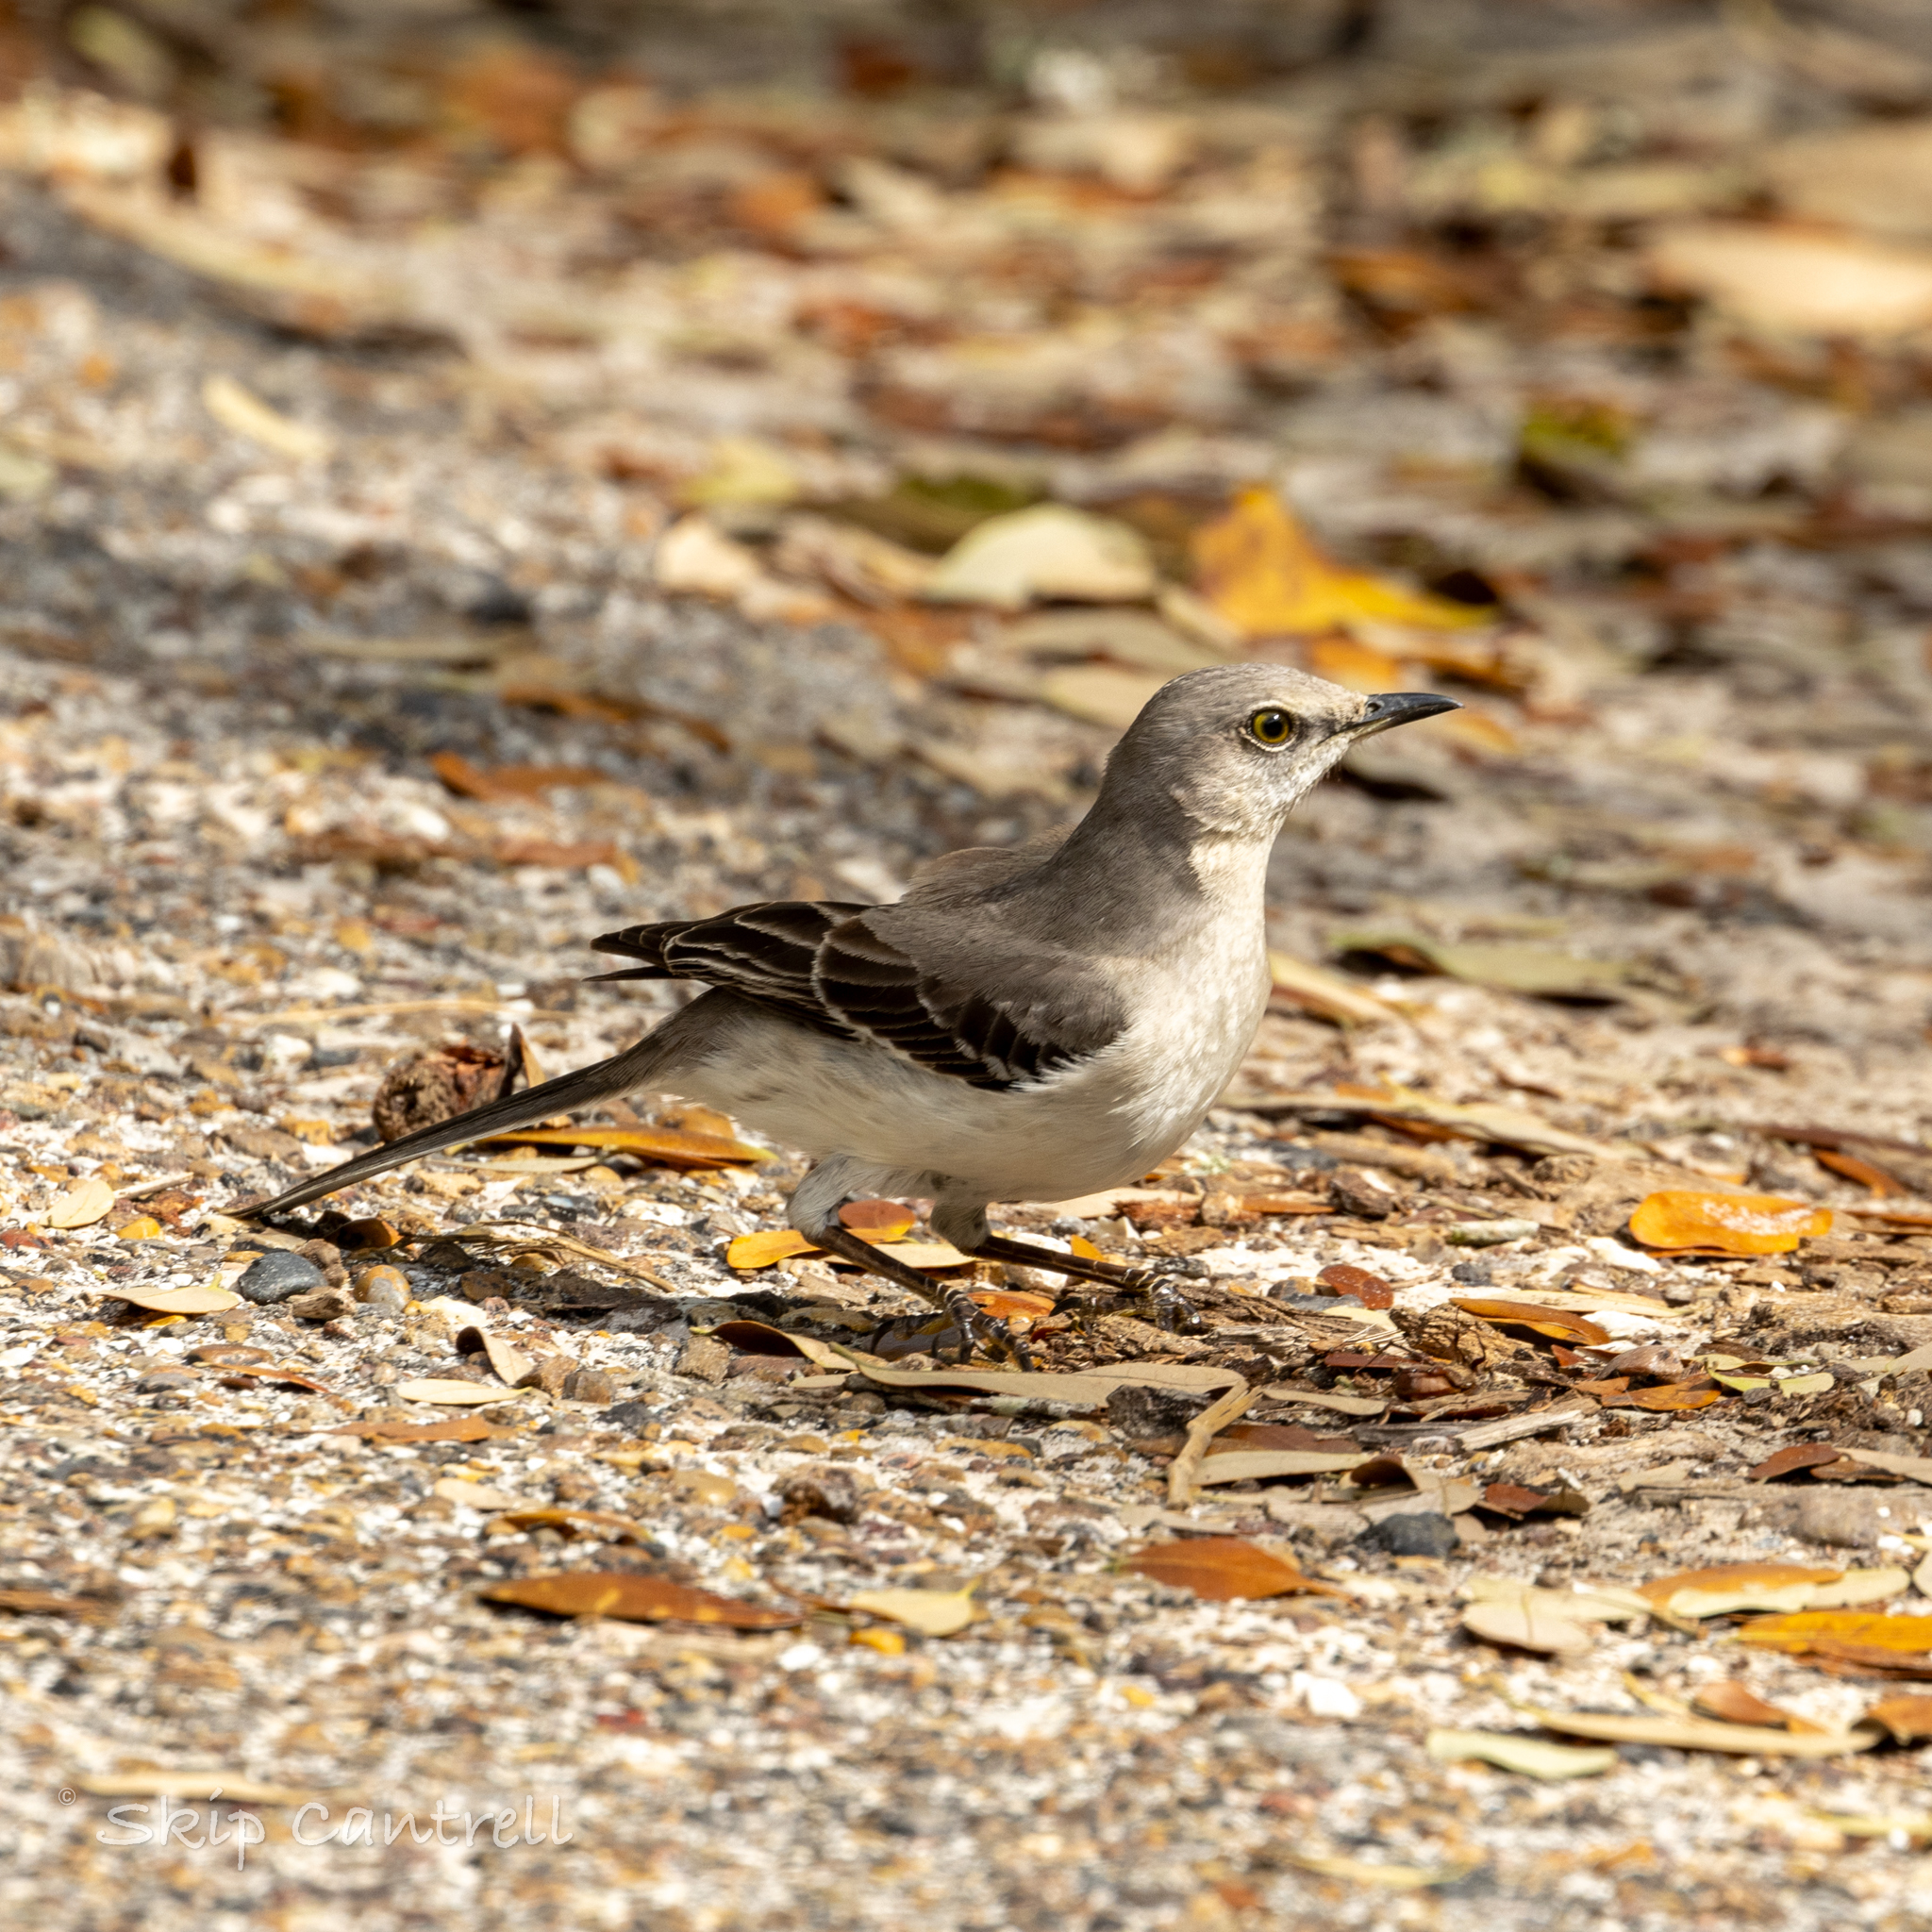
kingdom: Animalia
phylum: Chordata
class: Aves
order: Passeriformes
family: Mimidae
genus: Mimus
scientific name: Mimus polyglottos
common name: Northern mockingbird
